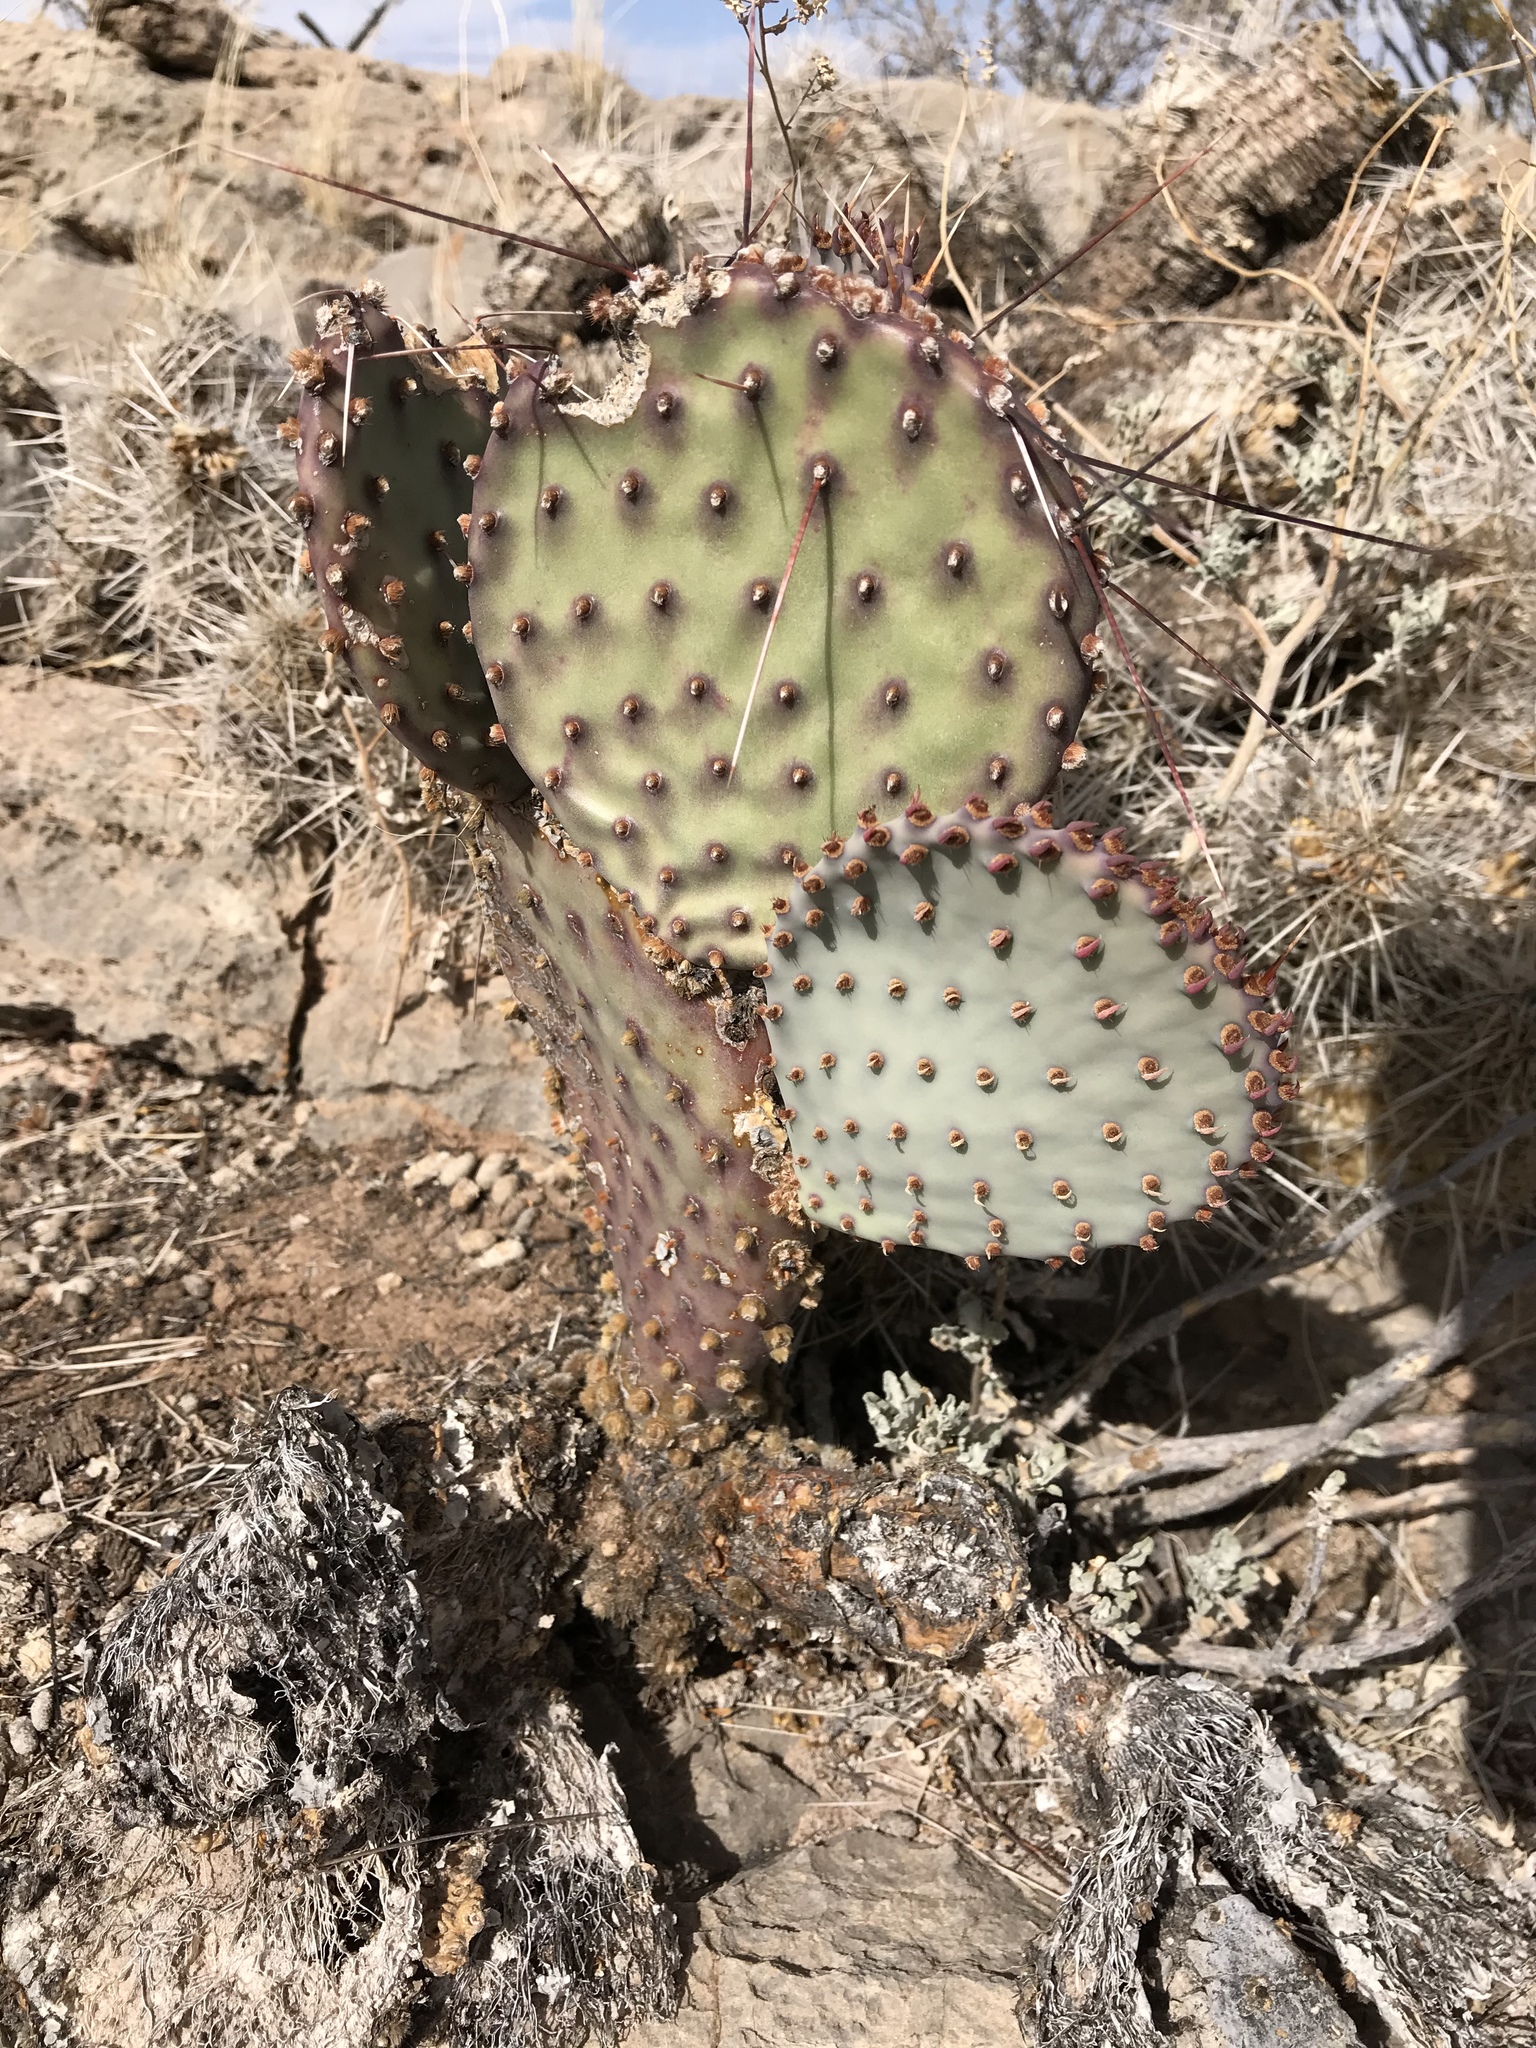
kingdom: Plantae
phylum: Tracheophyta
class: Magnoliopsida
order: Caryophyllales
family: Cactaceae
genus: Opuntia
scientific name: Opuntia macrocentra
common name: Purple prickly-pear
